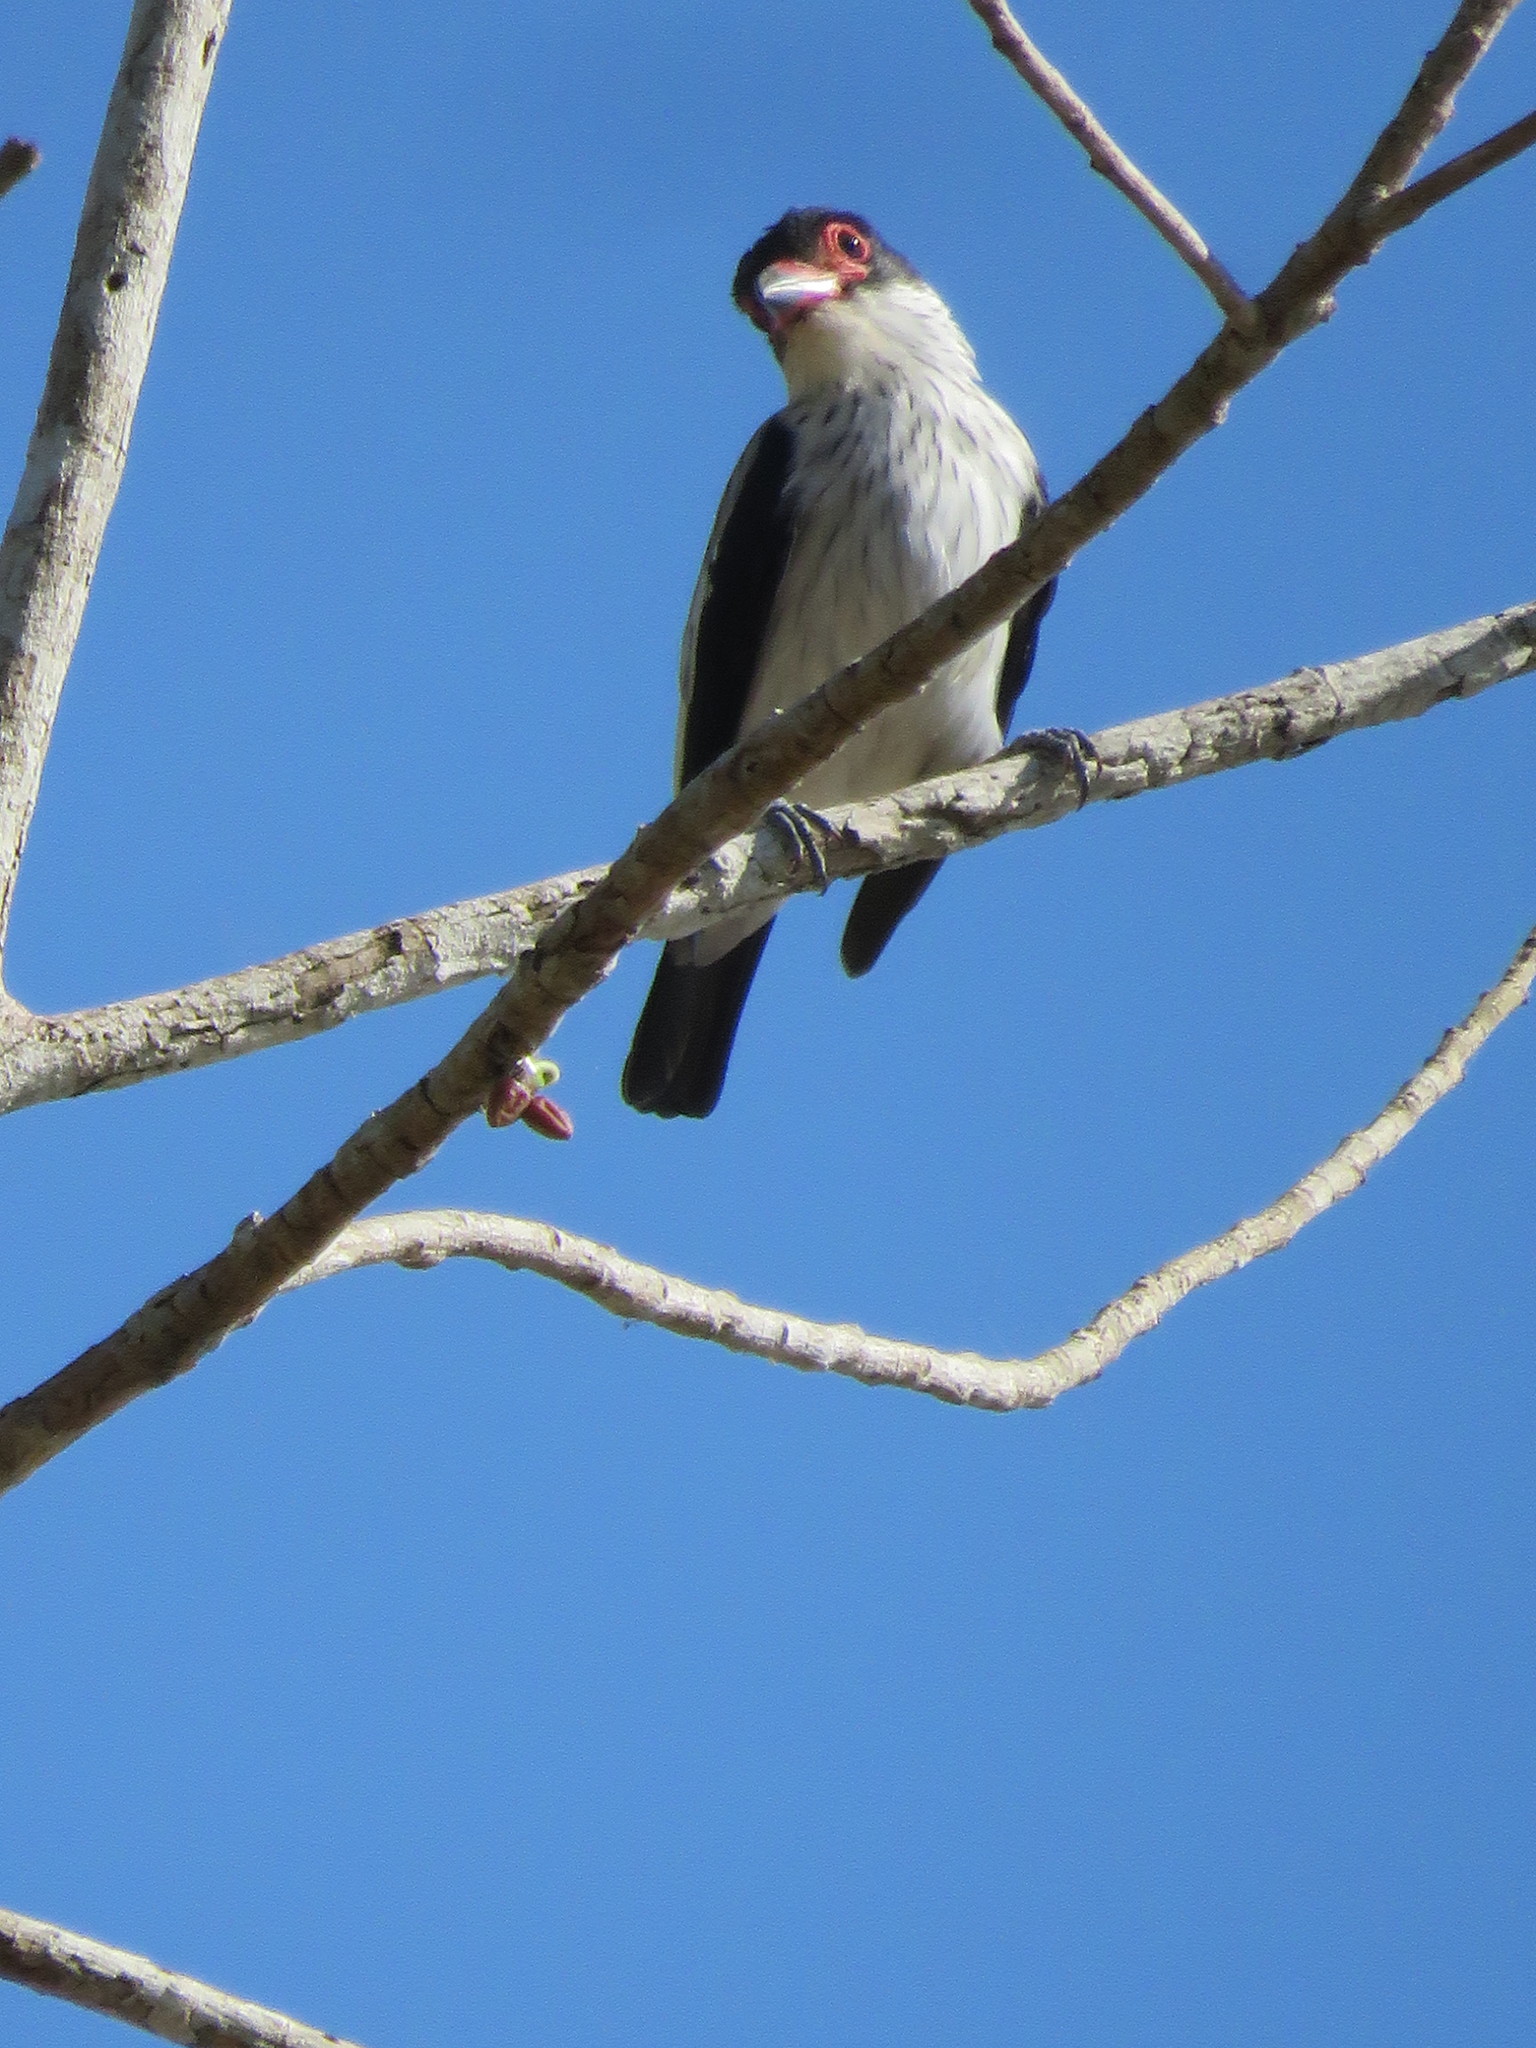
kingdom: Animalia
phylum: Chordata
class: Aves
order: Passeriformes
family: Cotingidae
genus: Tityra
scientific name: Tityra cayana
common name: Black-tailed tityra
